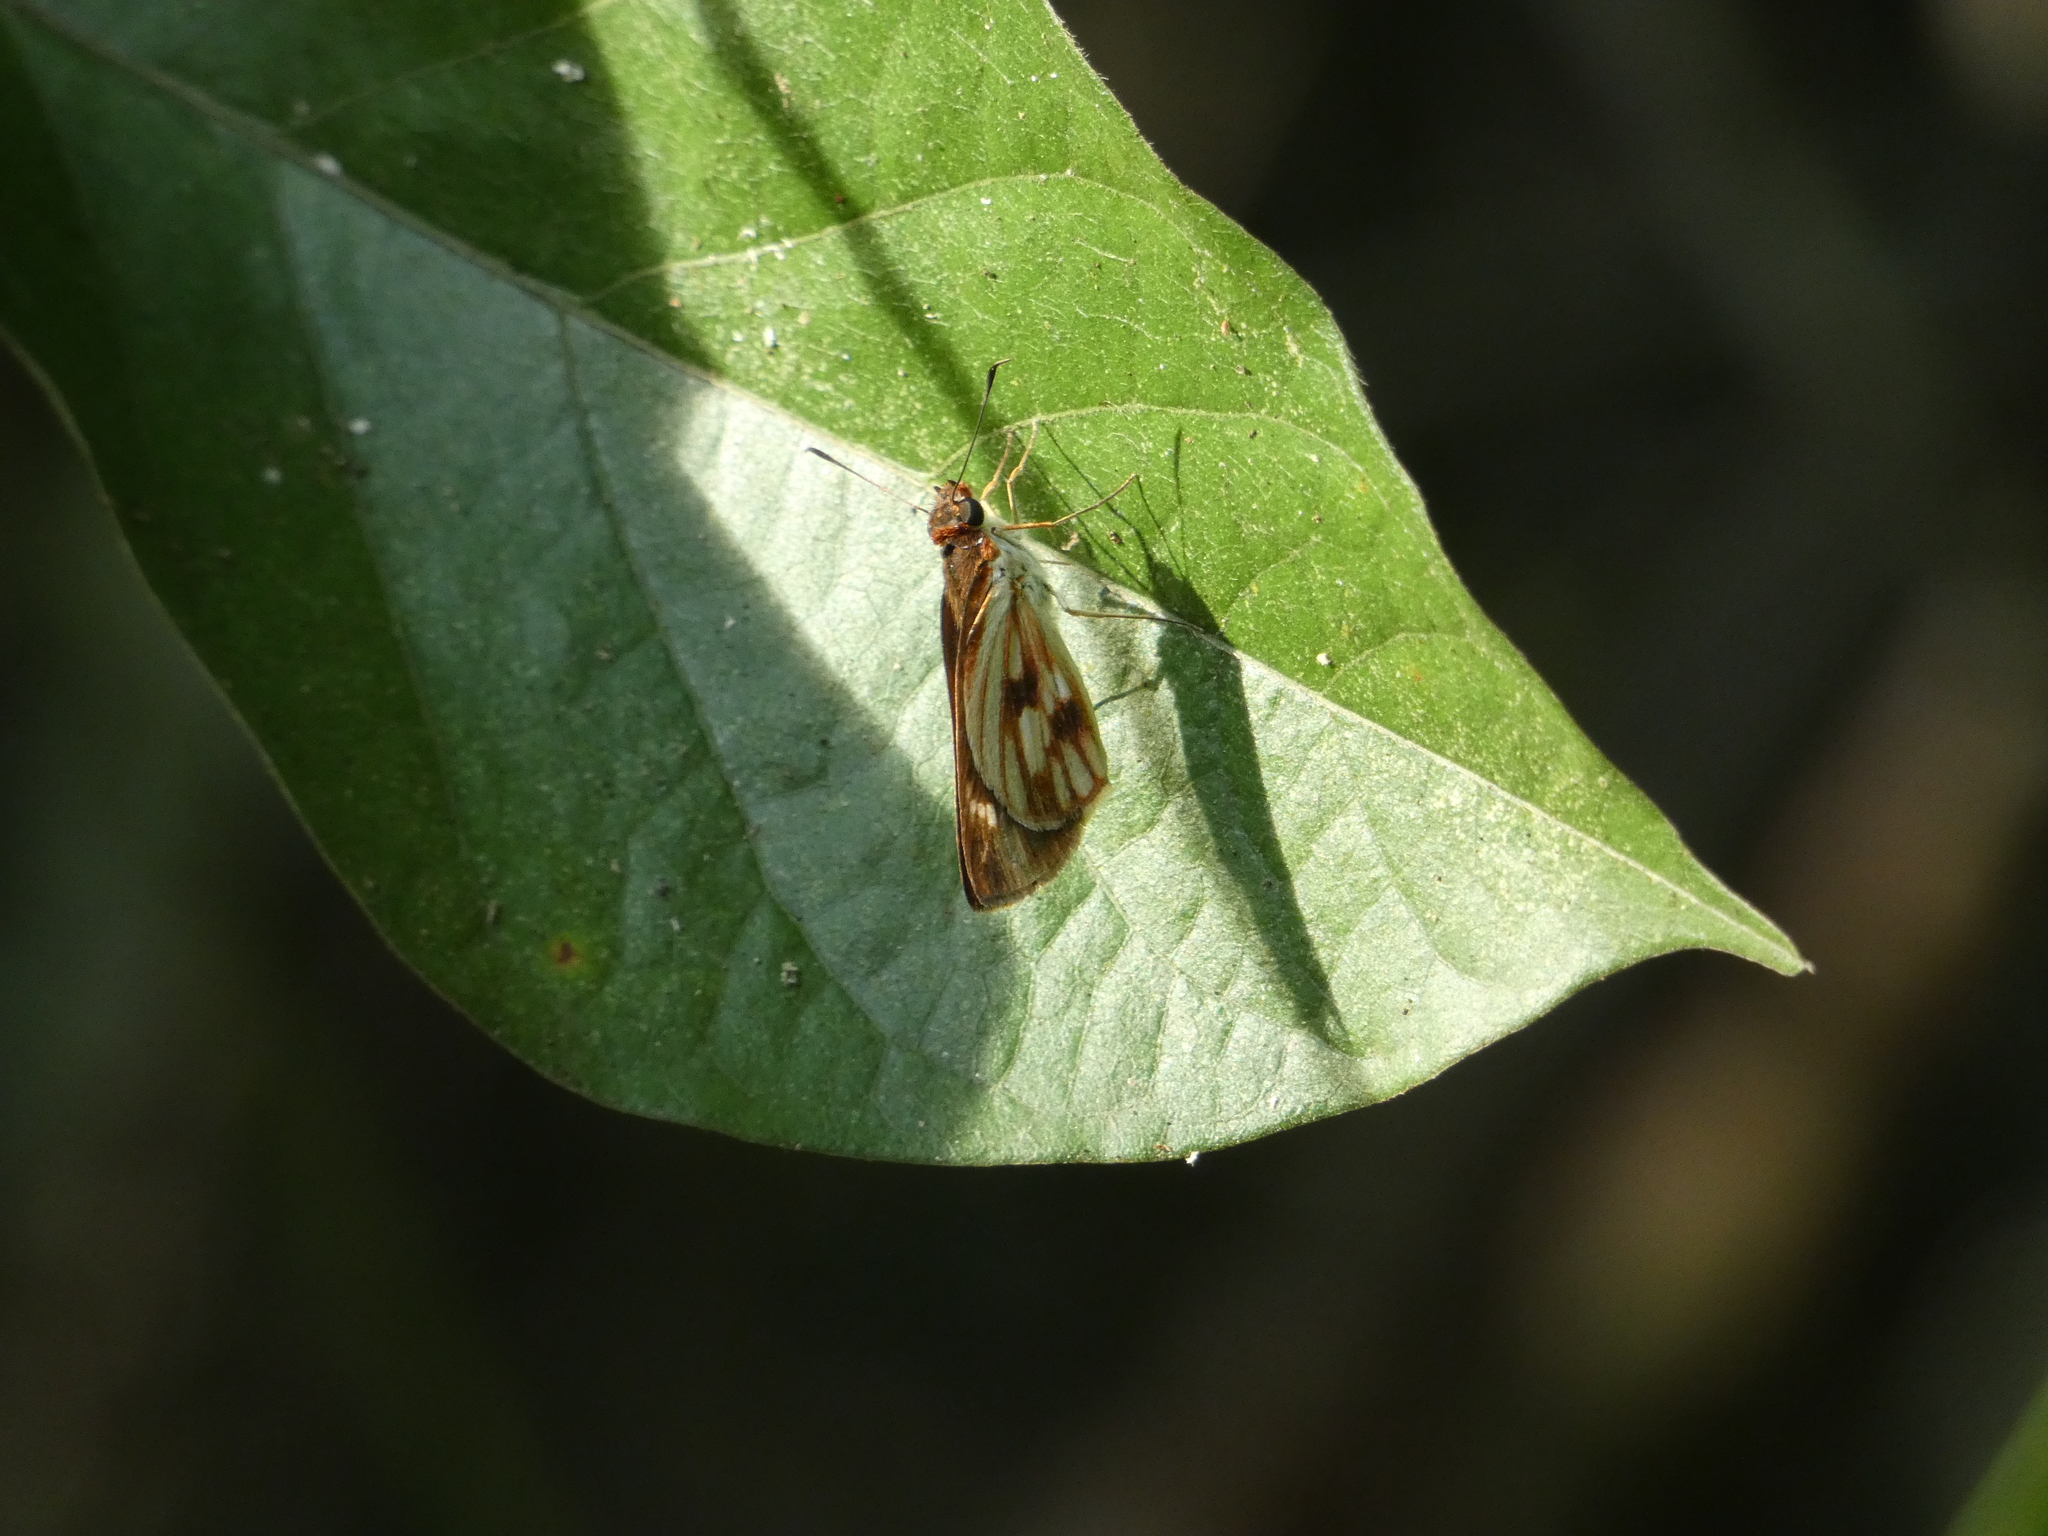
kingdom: Animalia
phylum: Arthropoda
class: Insecta
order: Lepidoptera
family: Hesperiidae
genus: Troyus
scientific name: Troyus fantasos
